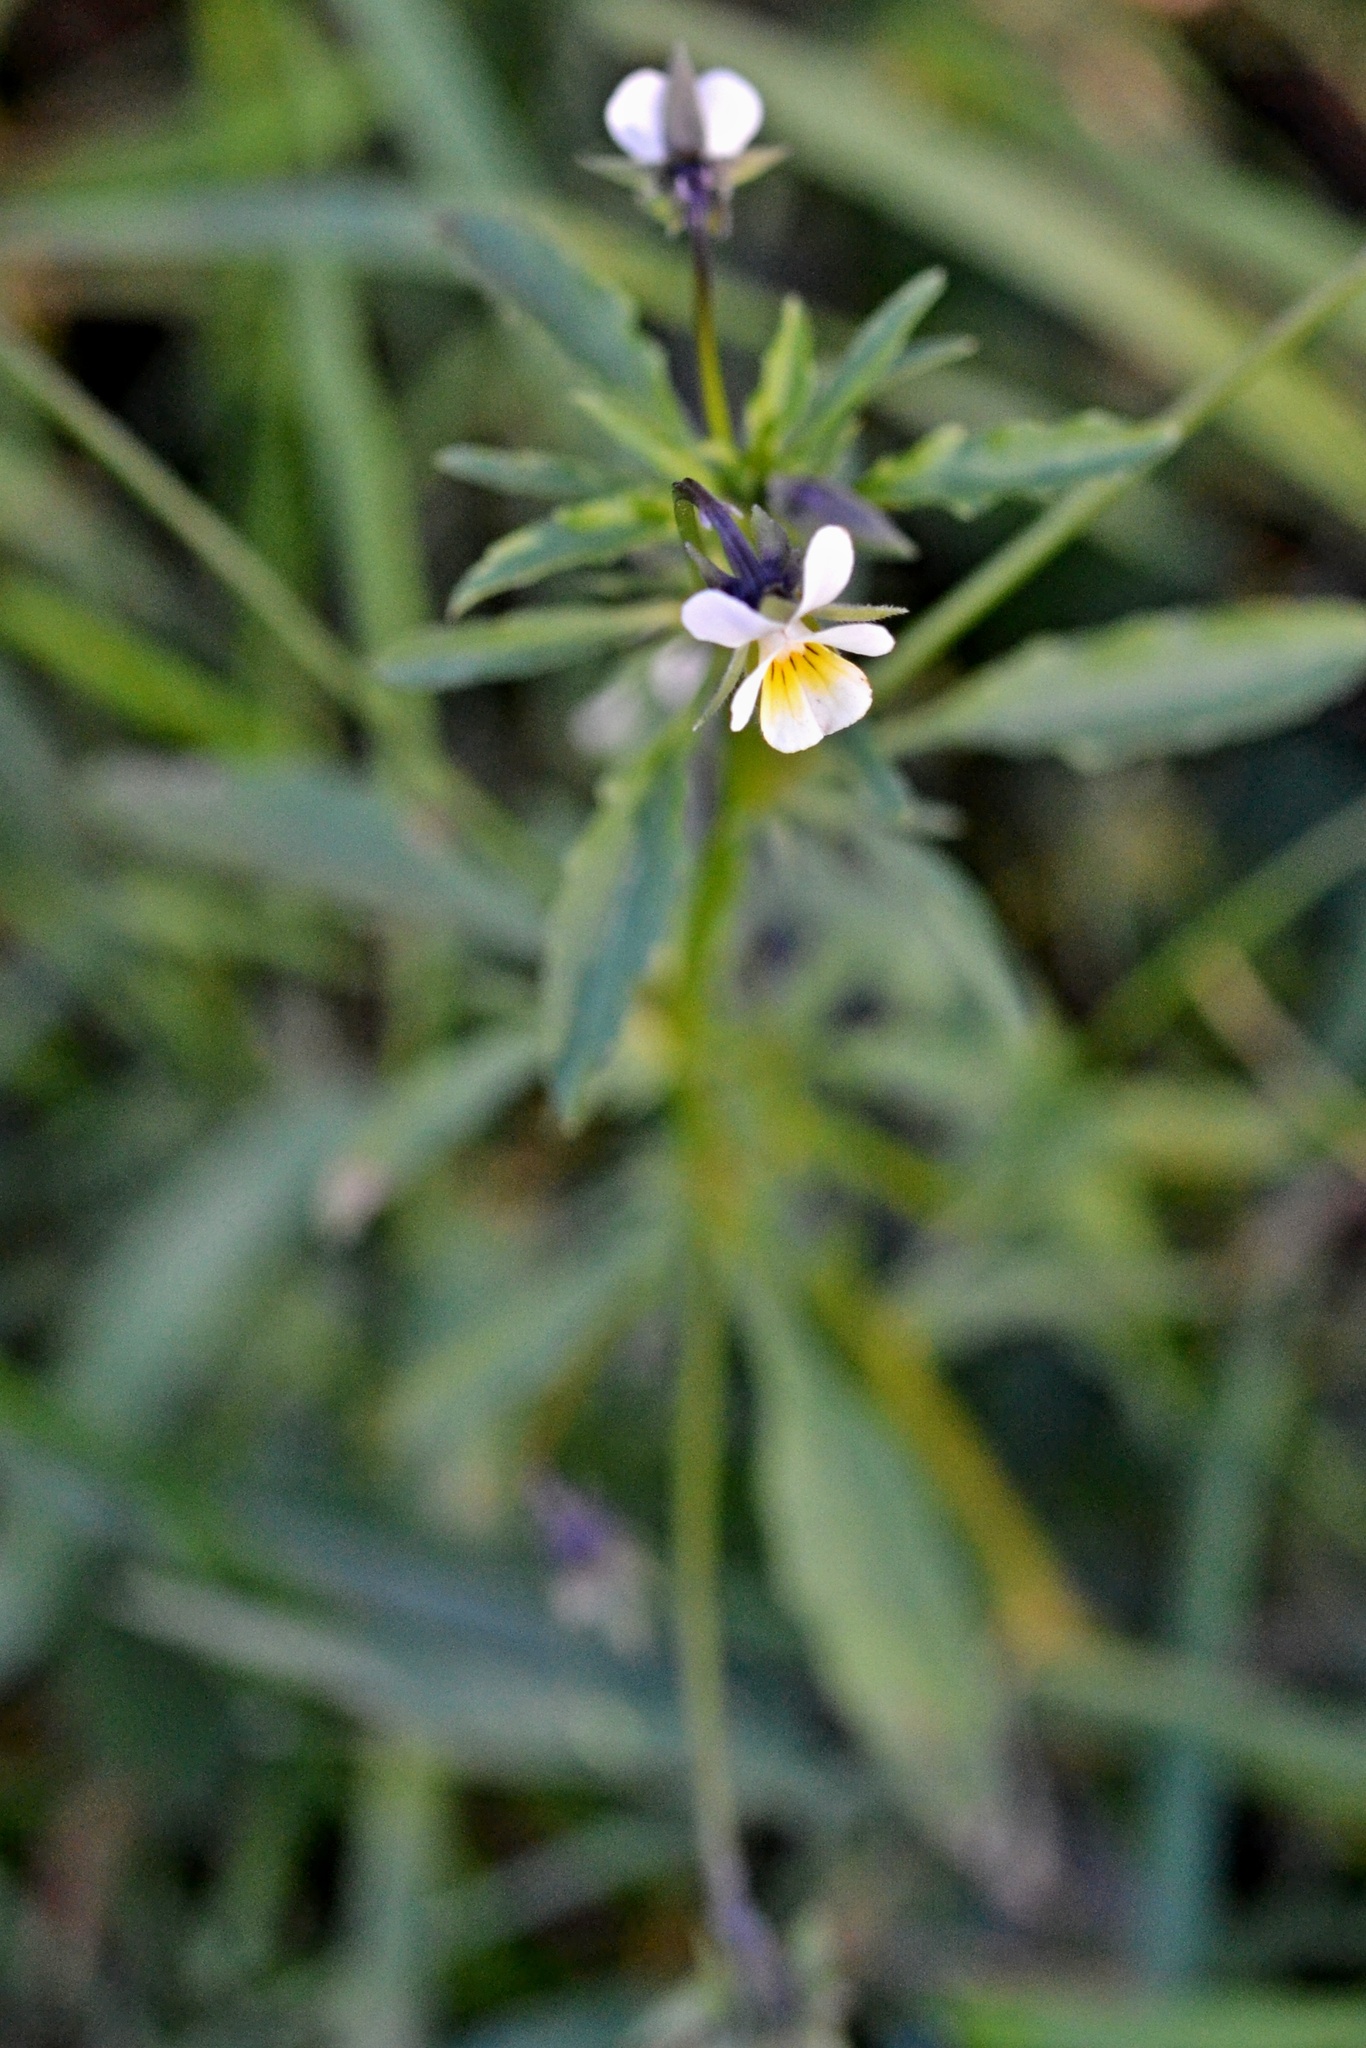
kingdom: Plantae
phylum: Tracheophyta
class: Magnoliopsida
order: Malpighiales
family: Violaceae
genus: Viola
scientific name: Viola arvensis
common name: Field pansy
